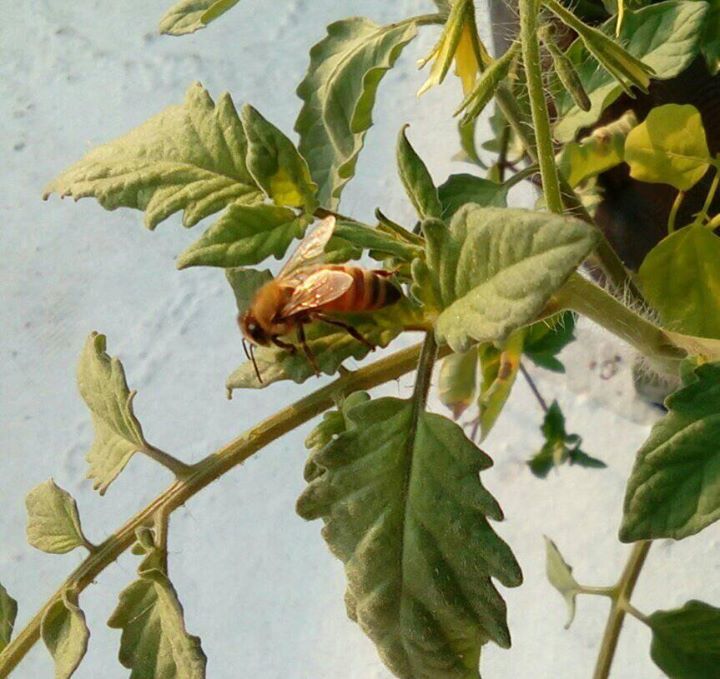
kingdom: Animalia
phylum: Arthropoda
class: Insecta
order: Hymenoptera
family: Apidae
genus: Apis
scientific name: Apis mellifera
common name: Honey bee
